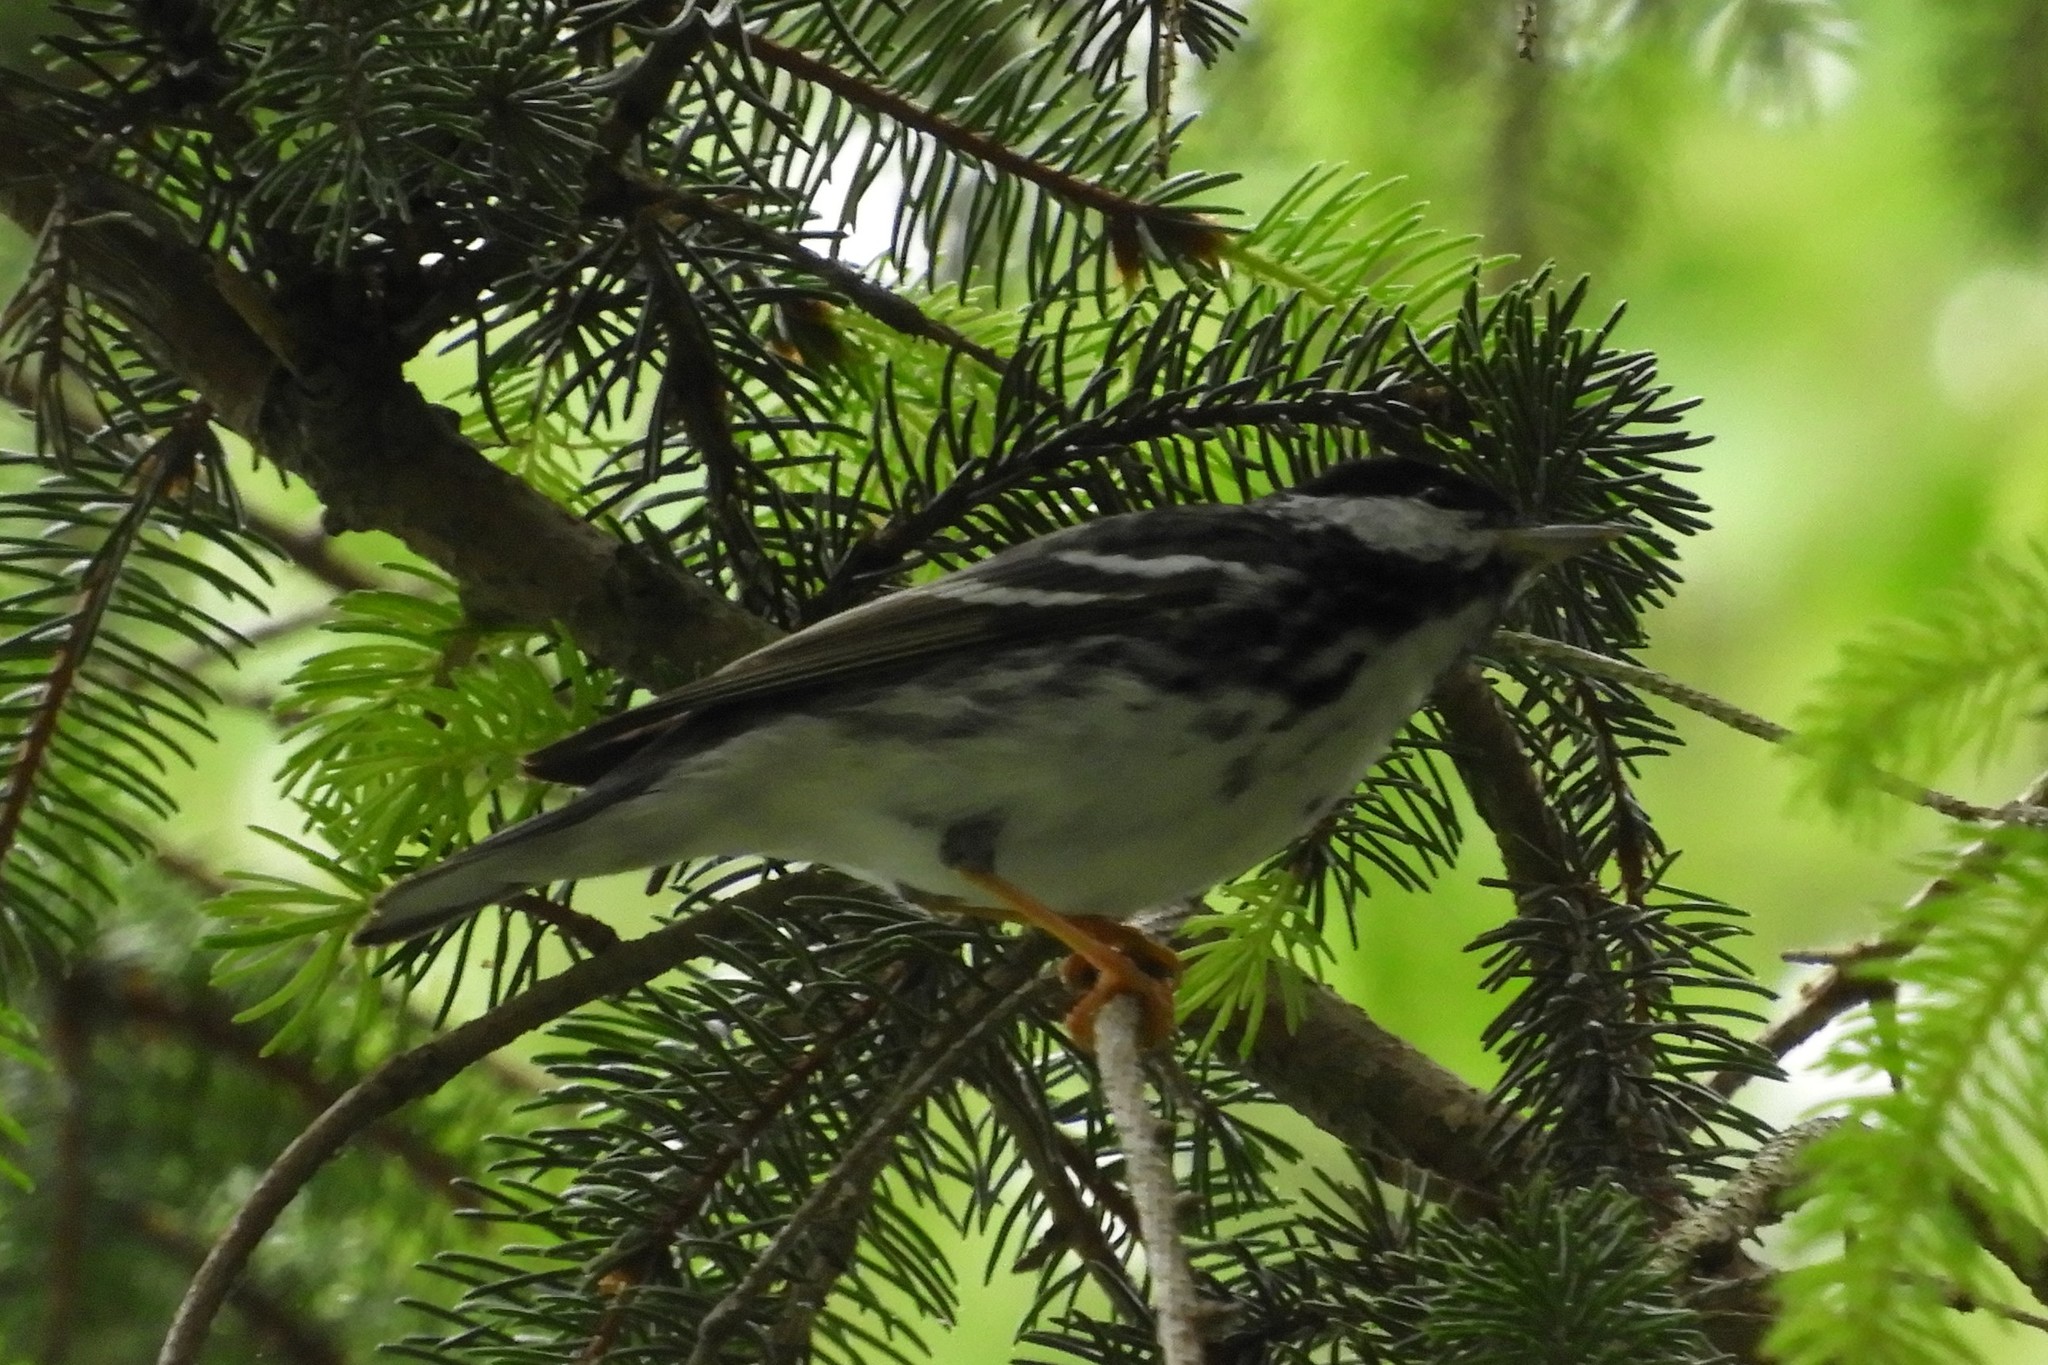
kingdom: Animalia
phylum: Chordata
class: Aves
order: Passeriformes
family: Parulidae
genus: Setophaga
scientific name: Setophaga striata
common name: Blackpoll warbler
